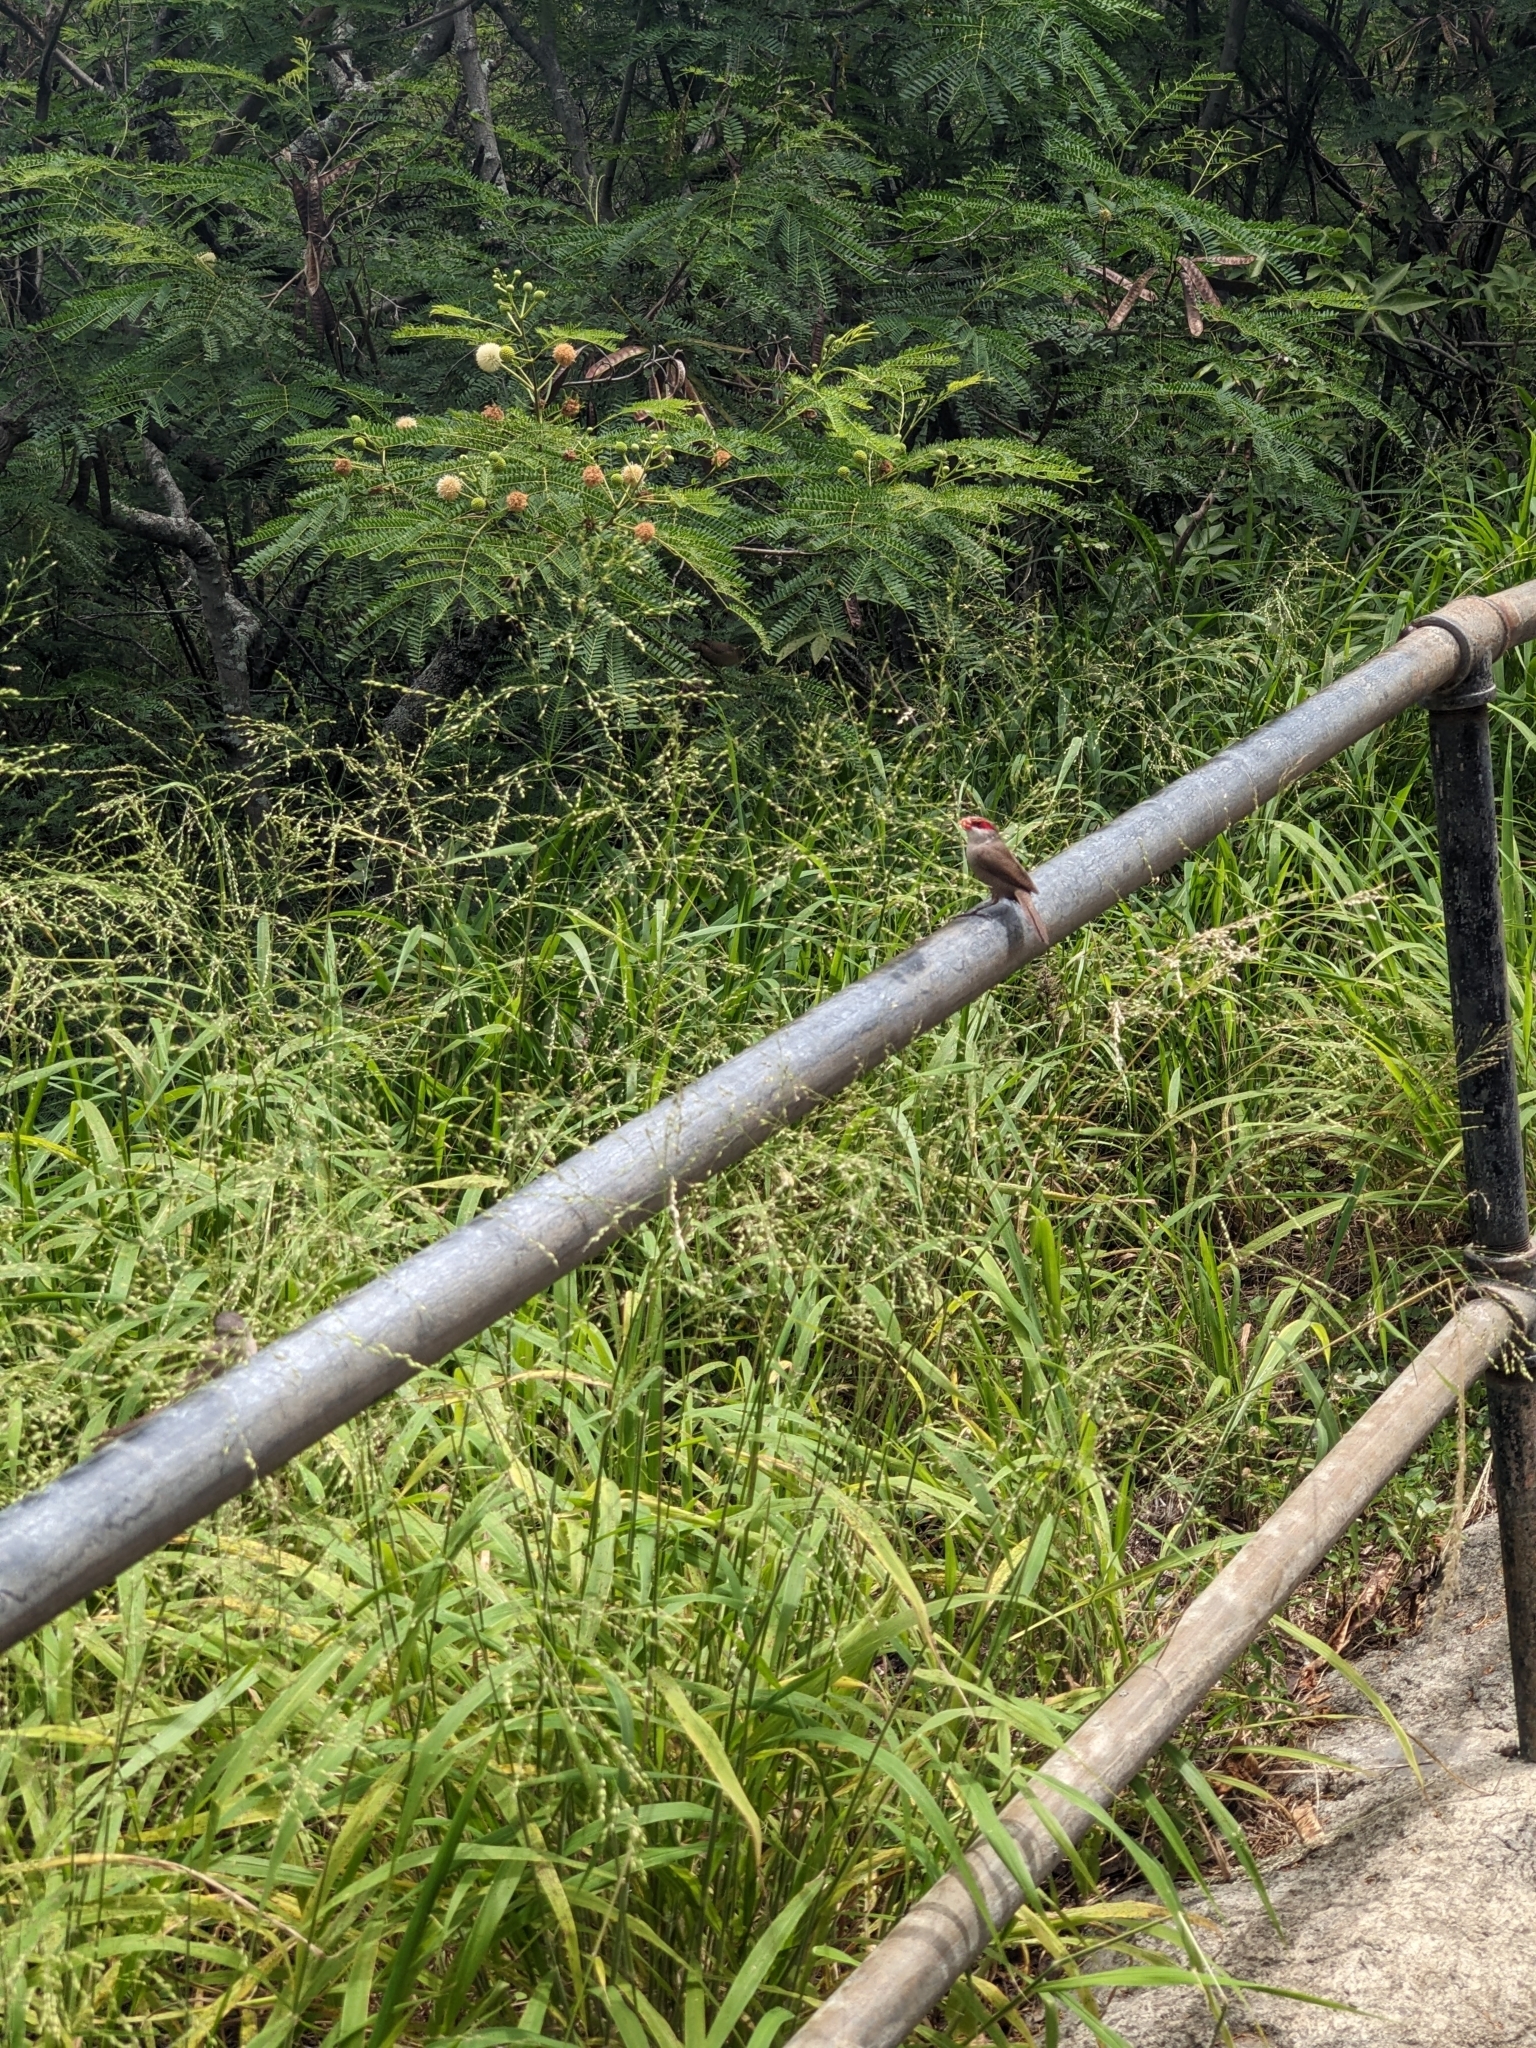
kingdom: Animalia
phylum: Chordata
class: Aves
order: Passeriformes
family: Estrildidae
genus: Estrilda
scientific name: Estrilda astrild
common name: Common waxbill
